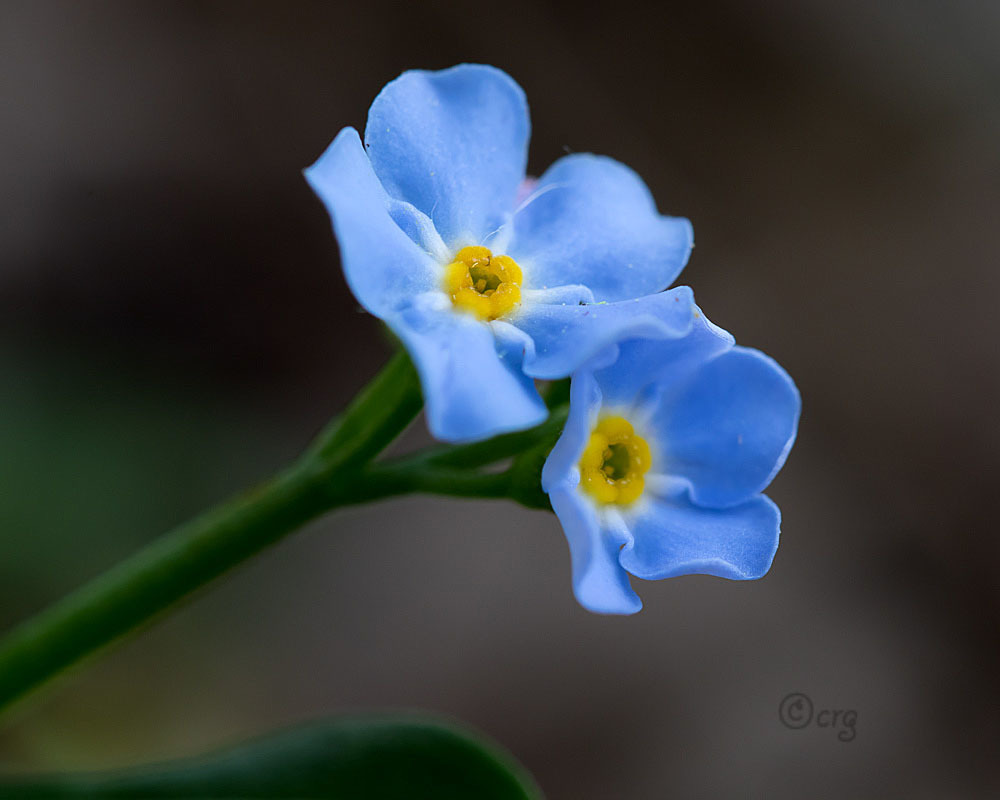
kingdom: Plantae
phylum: Tracheophyta
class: Magnoliopsida
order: Boraginales
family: Boraginaceae
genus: Myosotis
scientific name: Myosotis scorpioides
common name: Water forget-me-not
